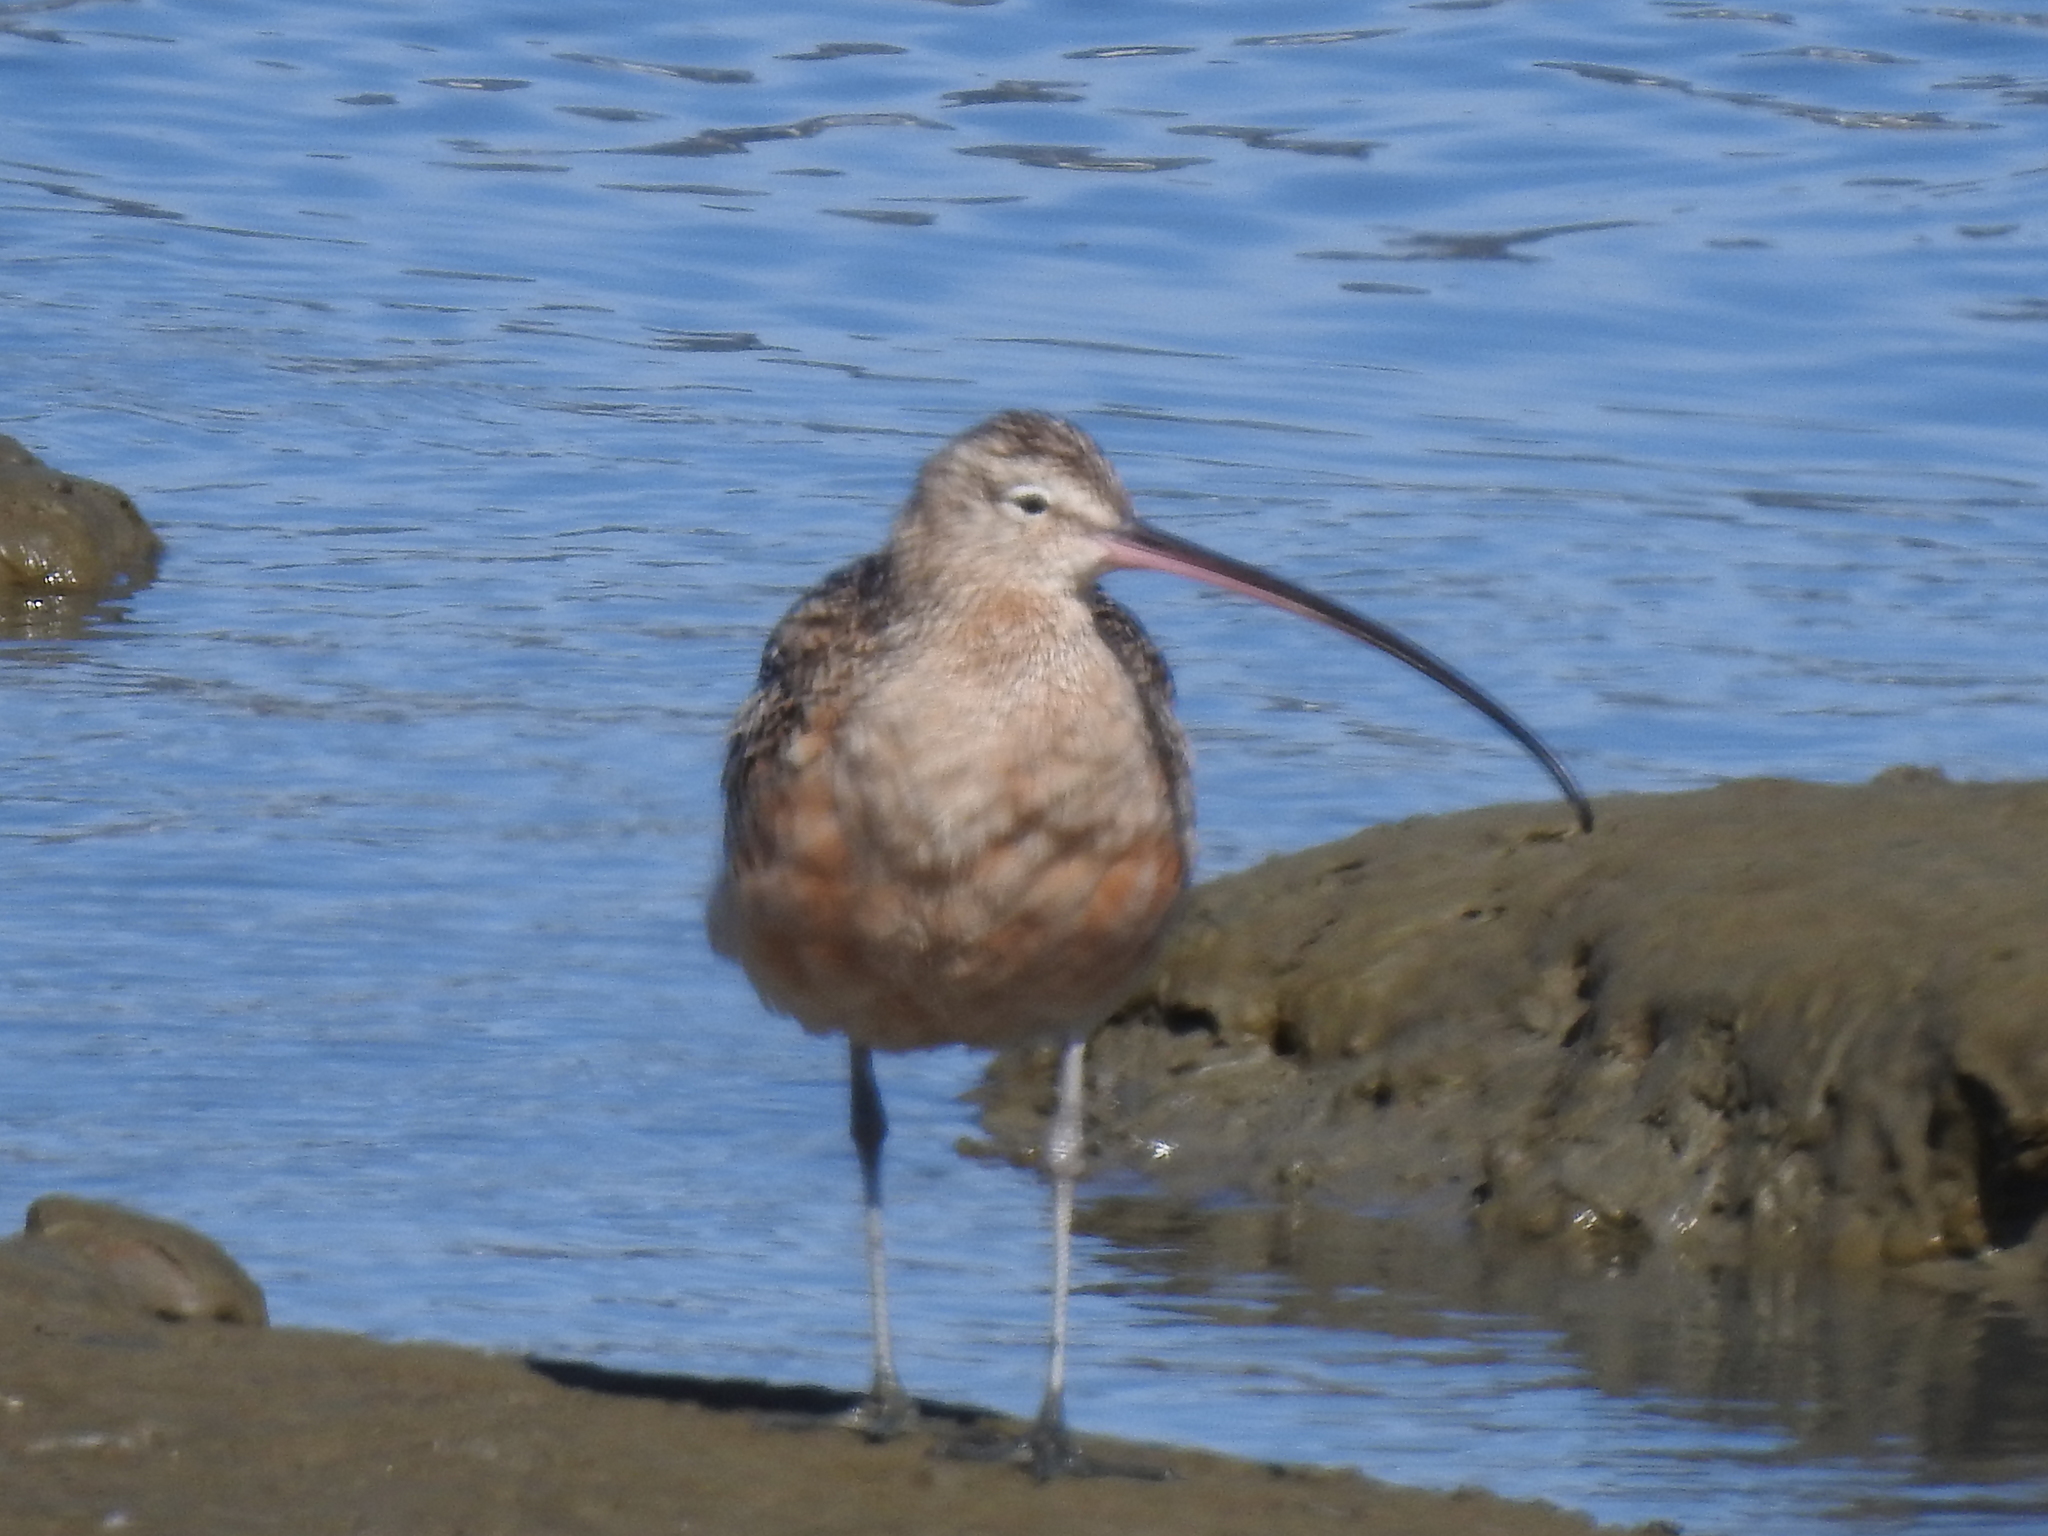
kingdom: Animalia
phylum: Chordata
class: Aves
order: Charadriiformes
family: Scolopacidae
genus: Numenius
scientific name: Numenius americanus
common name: Long-billed curlew
